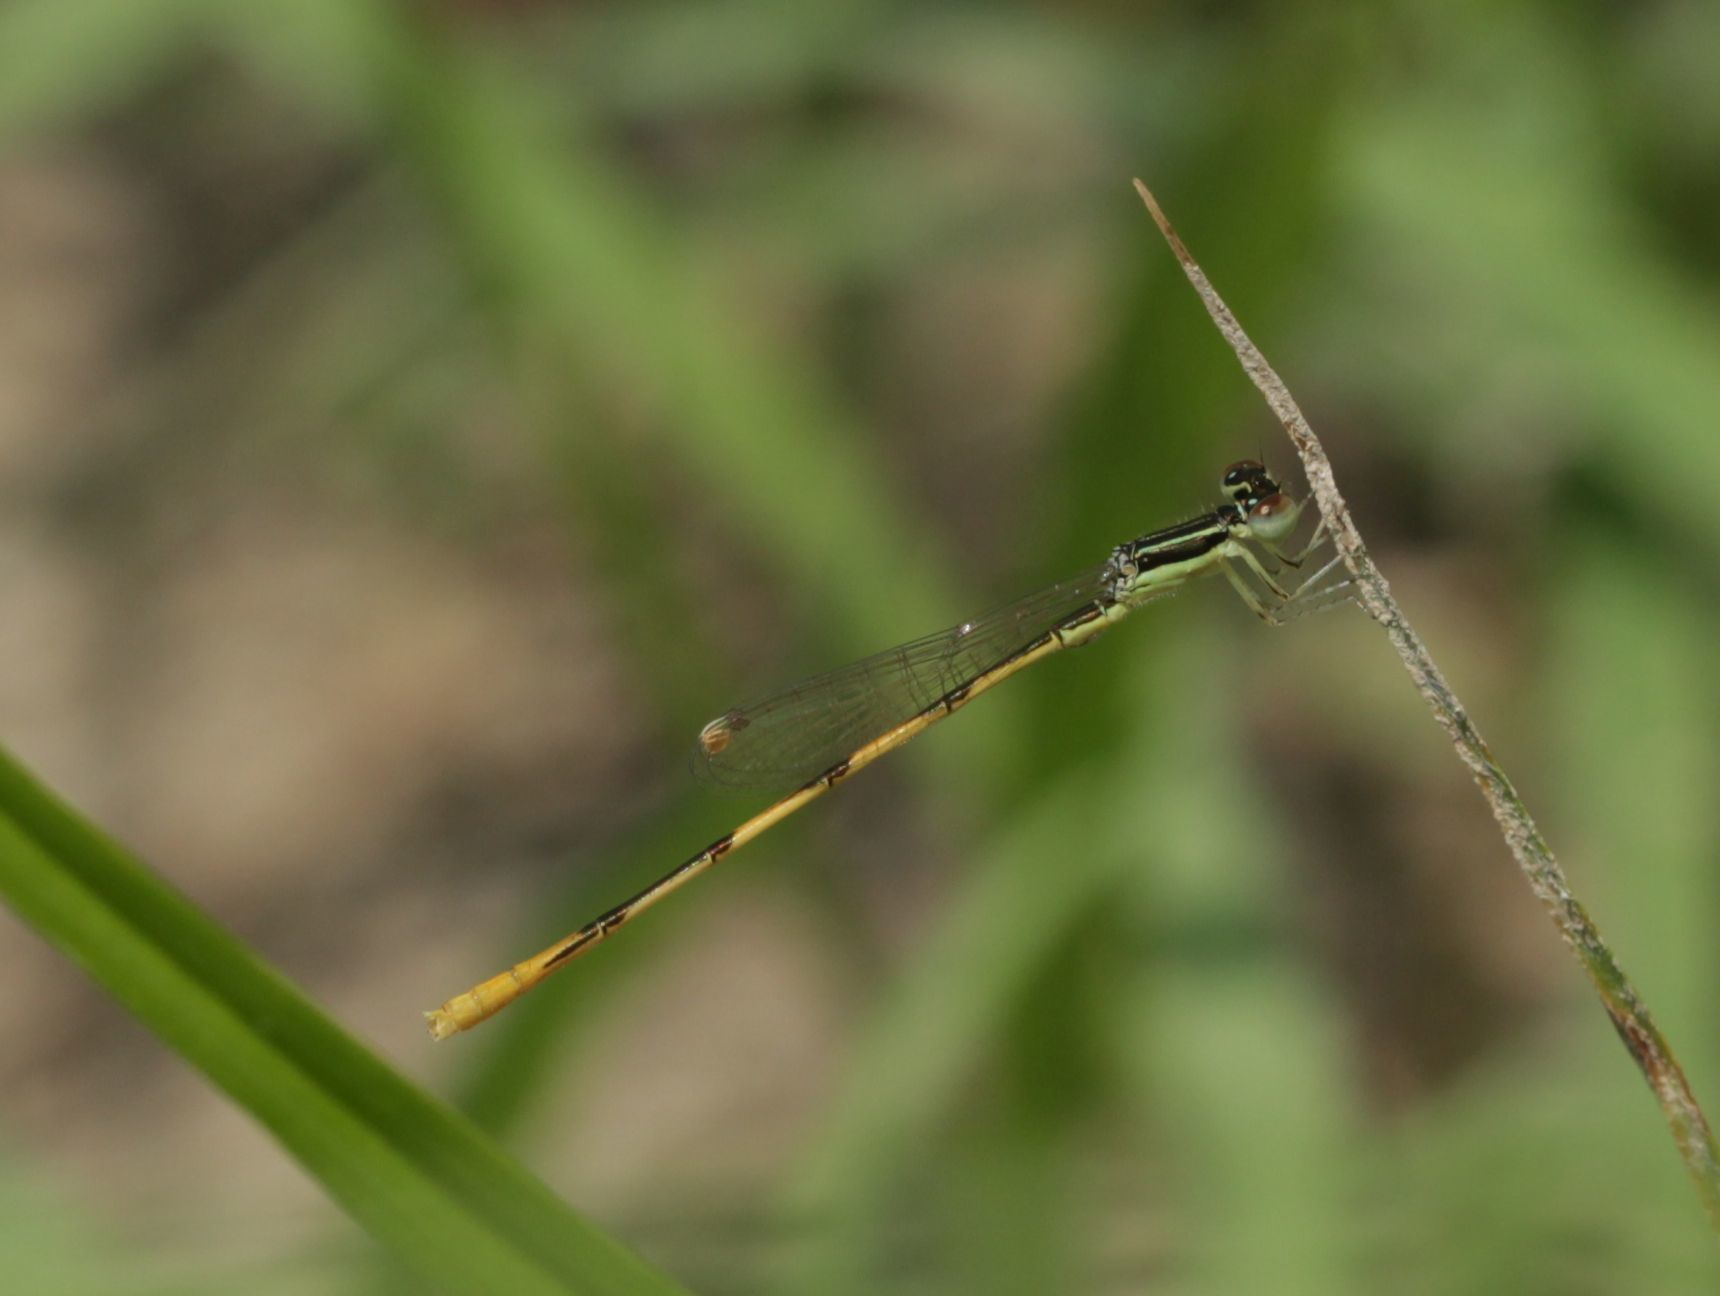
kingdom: Animalia
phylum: Arthropoda
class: Insecta
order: Odonata
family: Coenagrionidae
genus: Ischnura
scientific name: Ischnura hastata
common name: Citrine forktail
